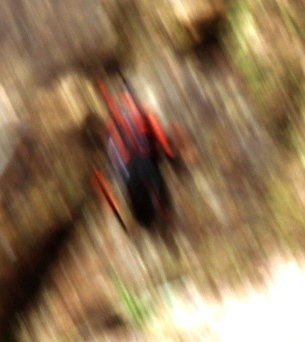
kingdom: Animalia
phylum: Arthropoda
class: Insecta
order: Orthoptera
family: Pyrgomorphidae
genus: Dictyophorus
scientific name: Dictyophorus spumans
